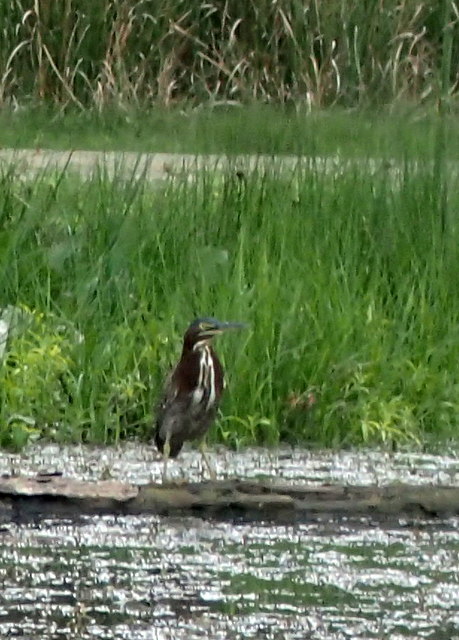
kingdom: Animalia
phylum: Chordata
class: Aves
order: Pelecaniformes
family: Ardeidae
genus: Butorides
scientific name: Butorides virescens
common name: Green heron
